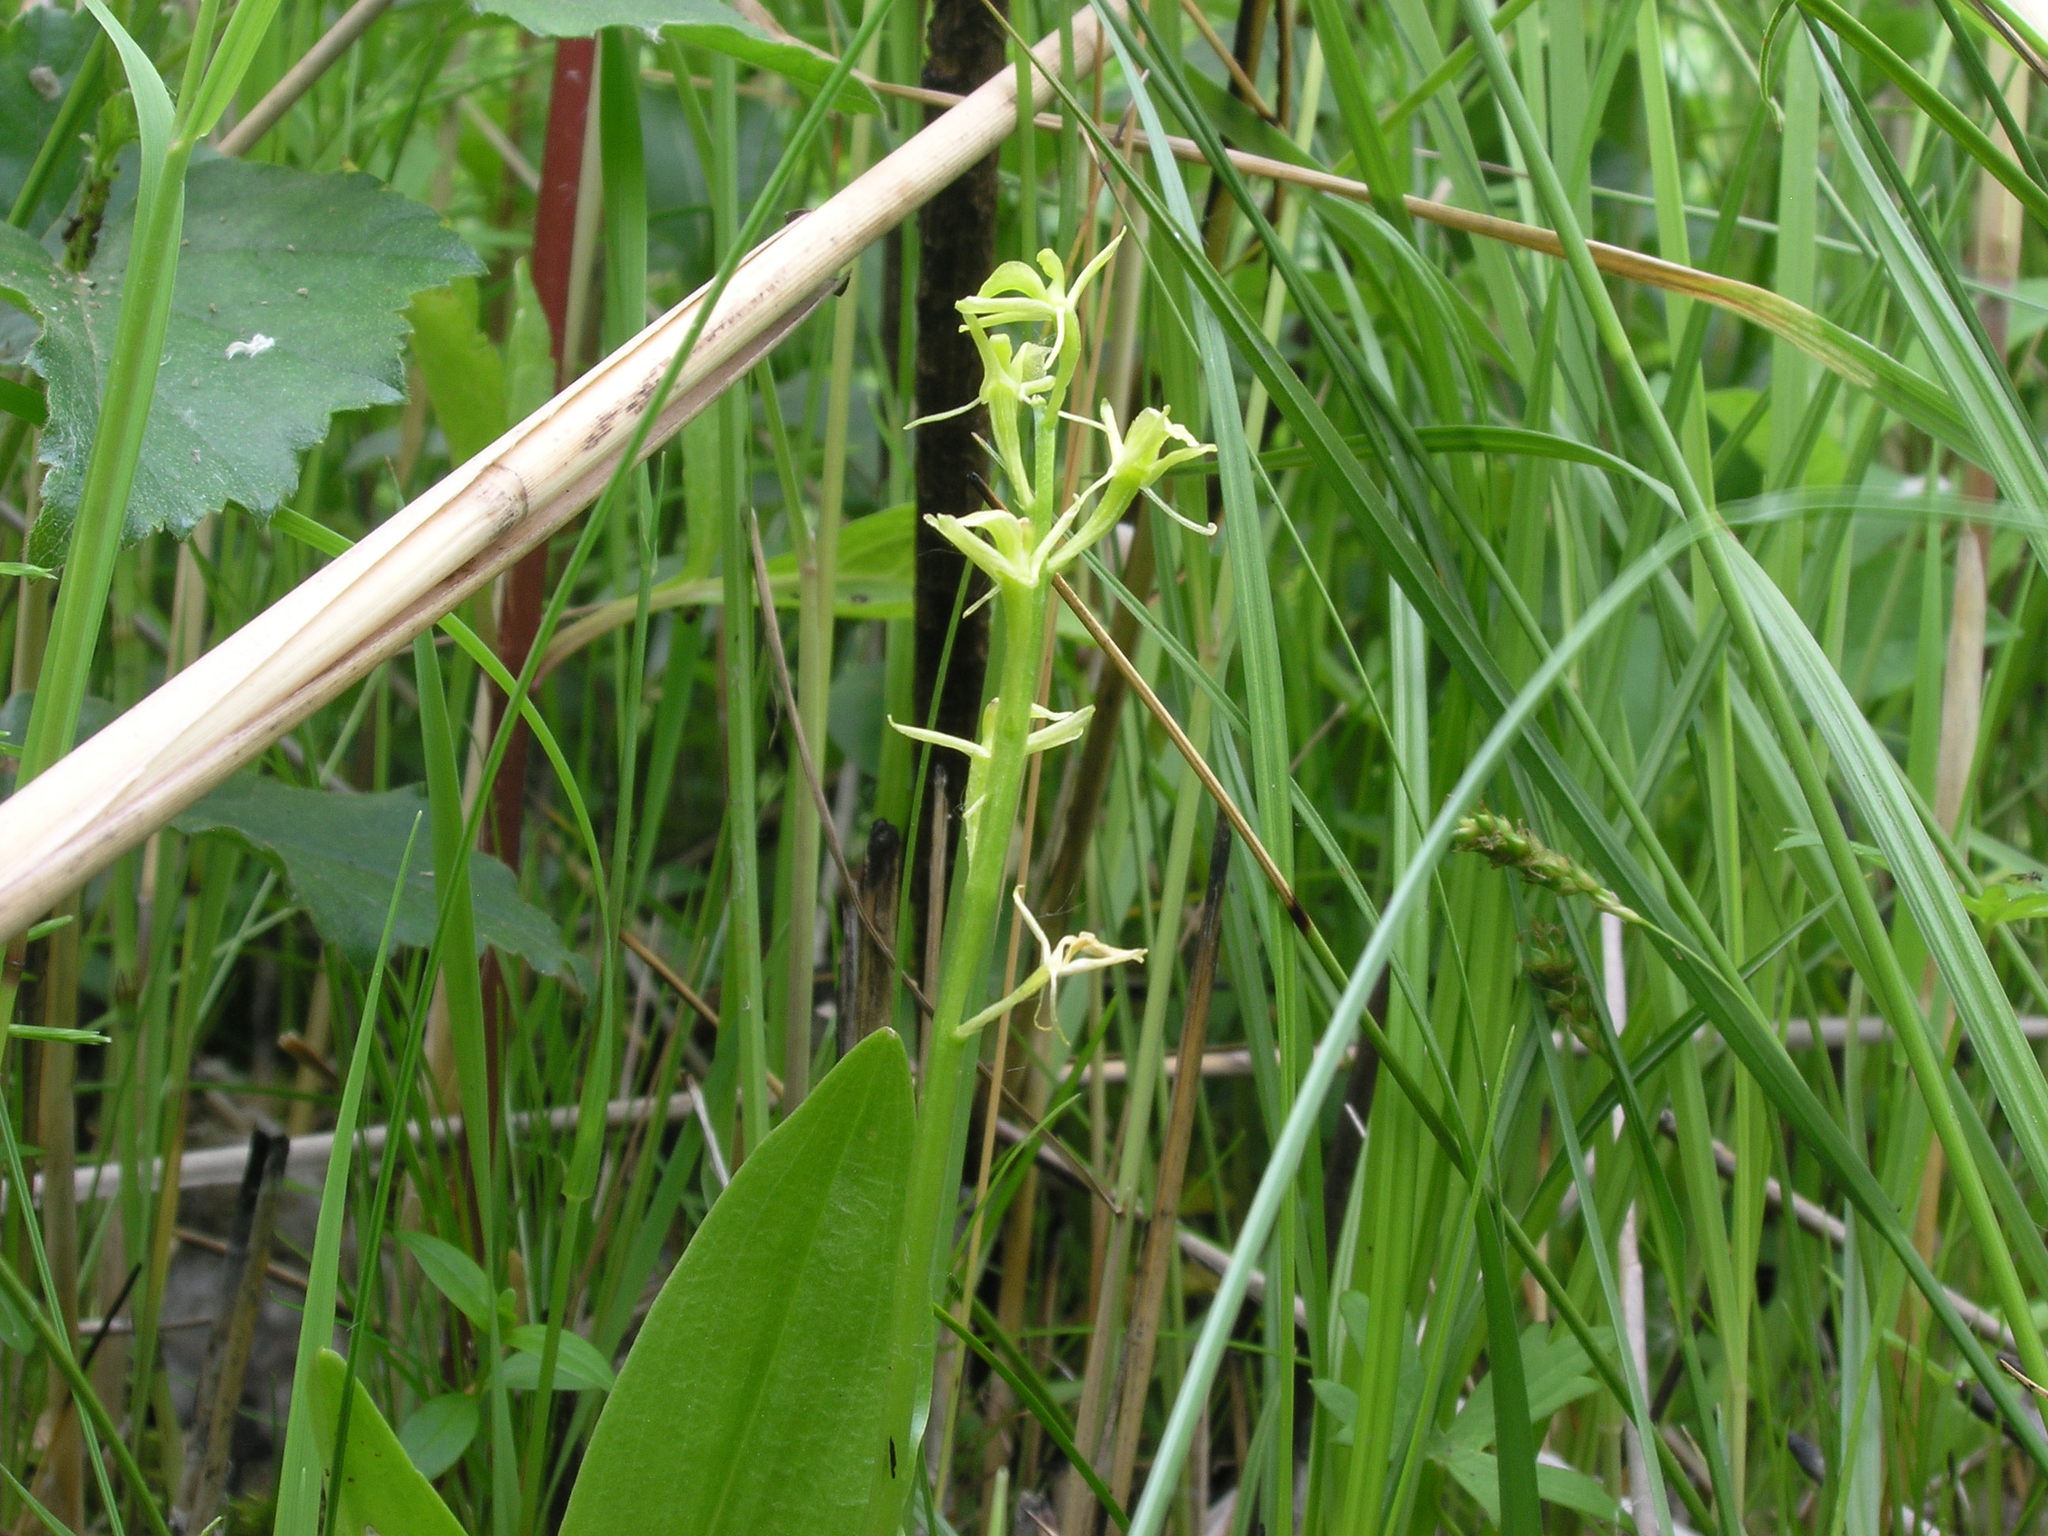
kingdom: Animalia
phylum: Arthropoda
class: Insecta
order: Coleoptera
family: Curculionidae
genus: Liparis
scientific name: Liparis loeselii
